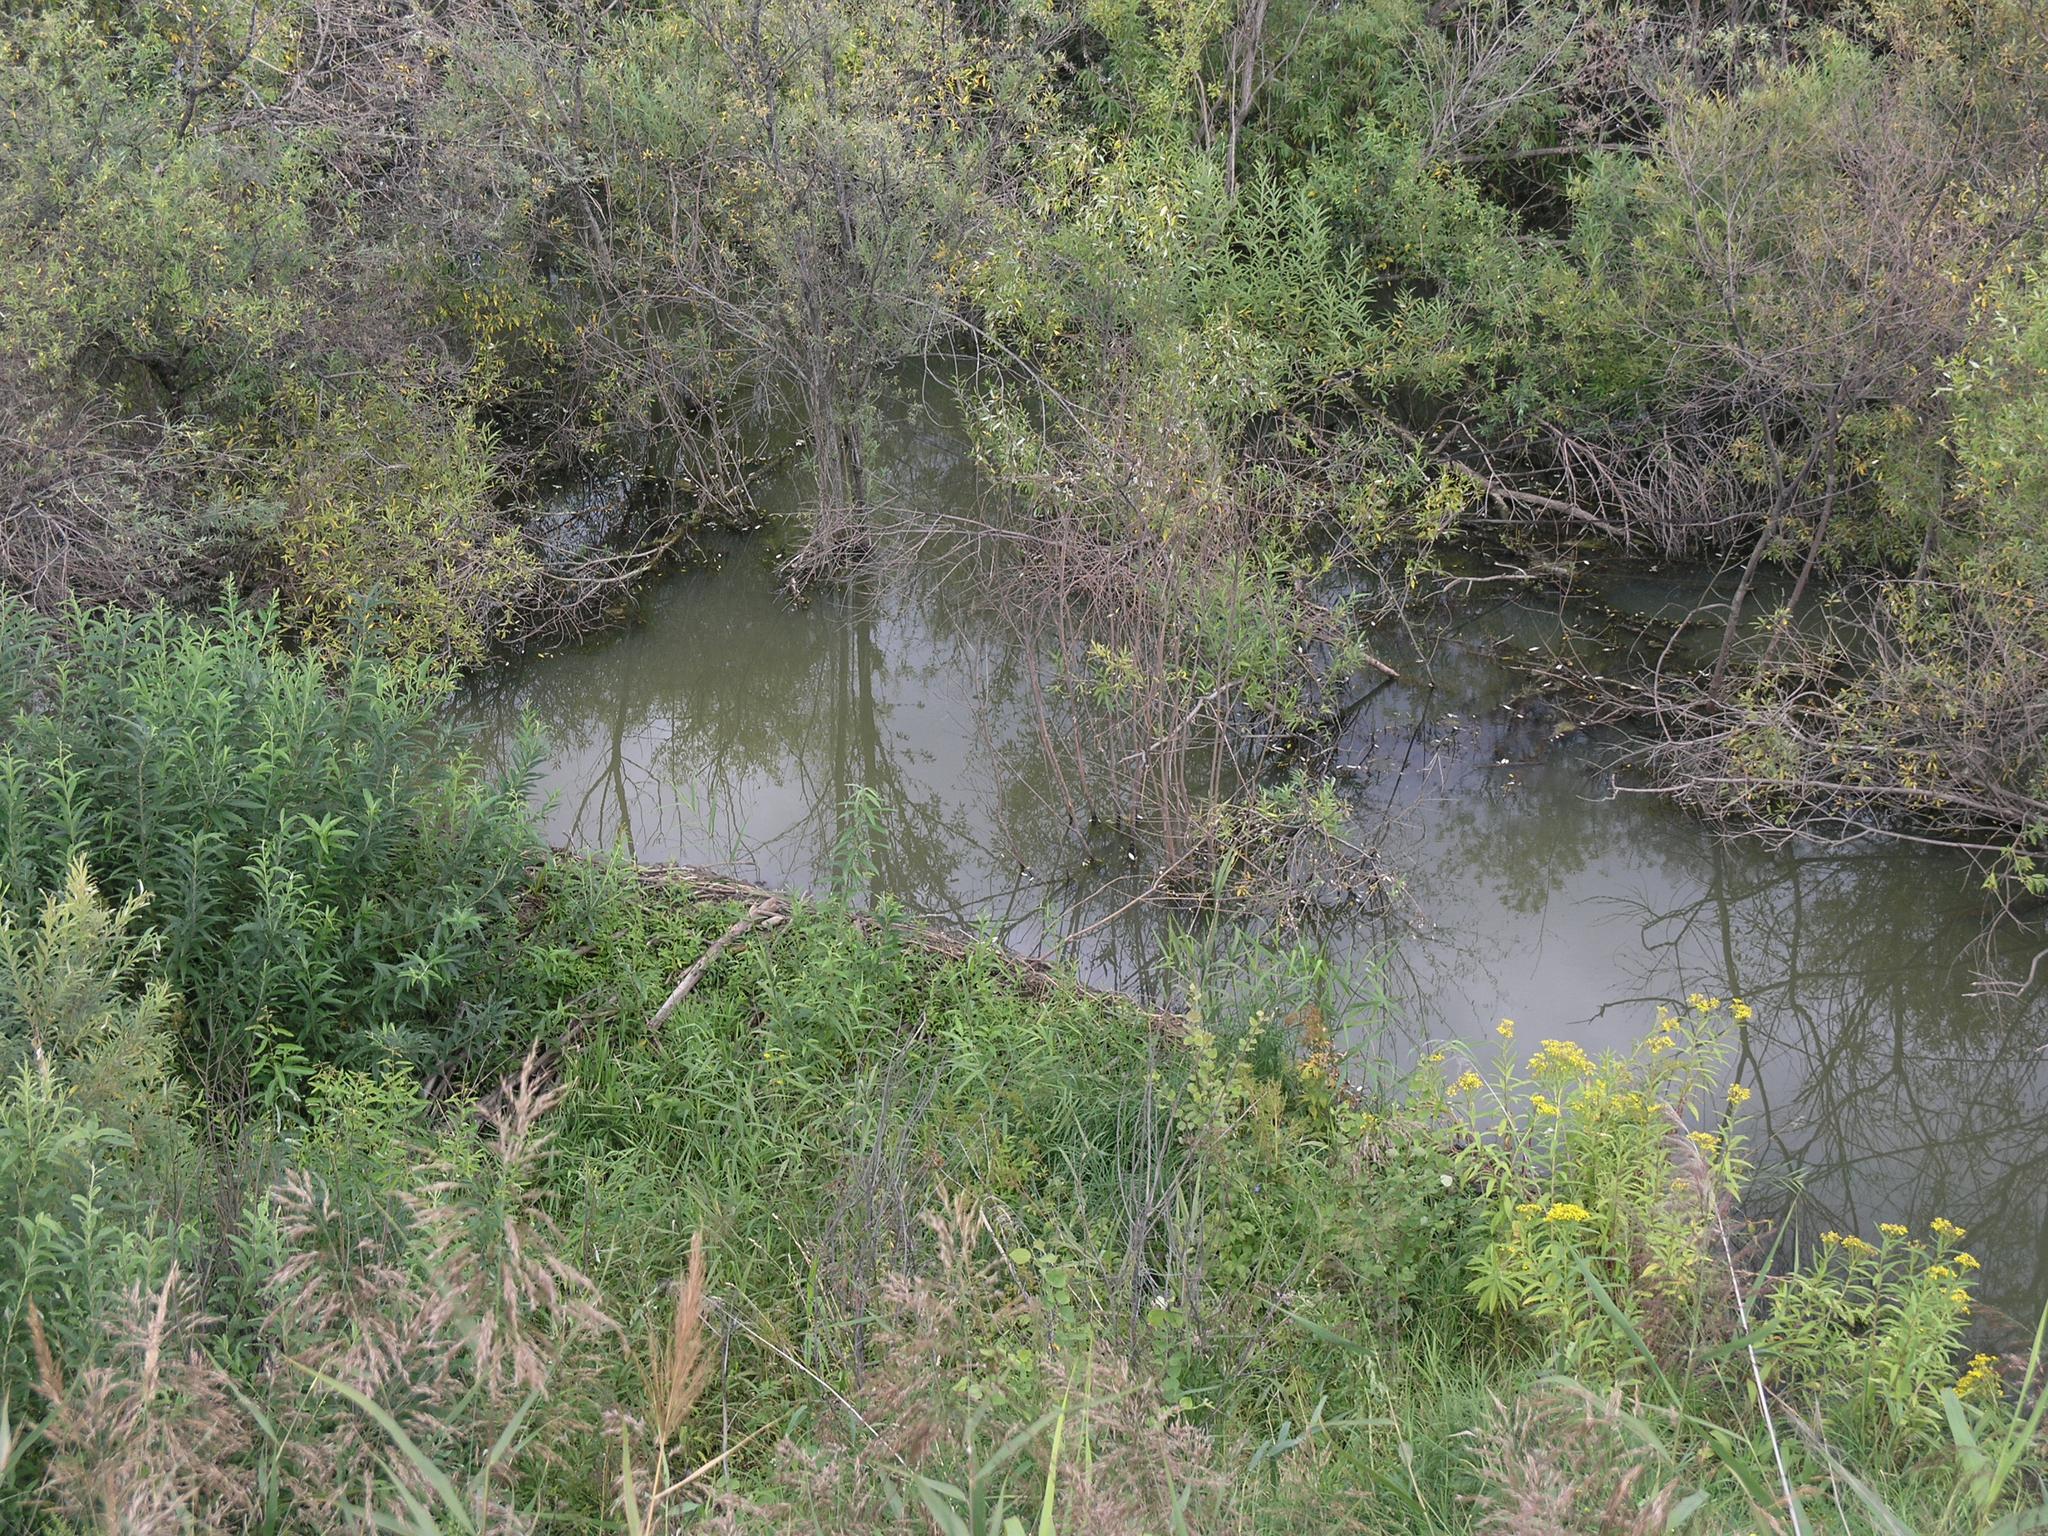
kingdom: Plantae
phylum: Tracheophyta
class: Magnoliopsida
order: Asterales
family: Asteraceae
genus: Senecio
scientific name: Senecio sarracenicus
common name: Broad-leaved ragwort
